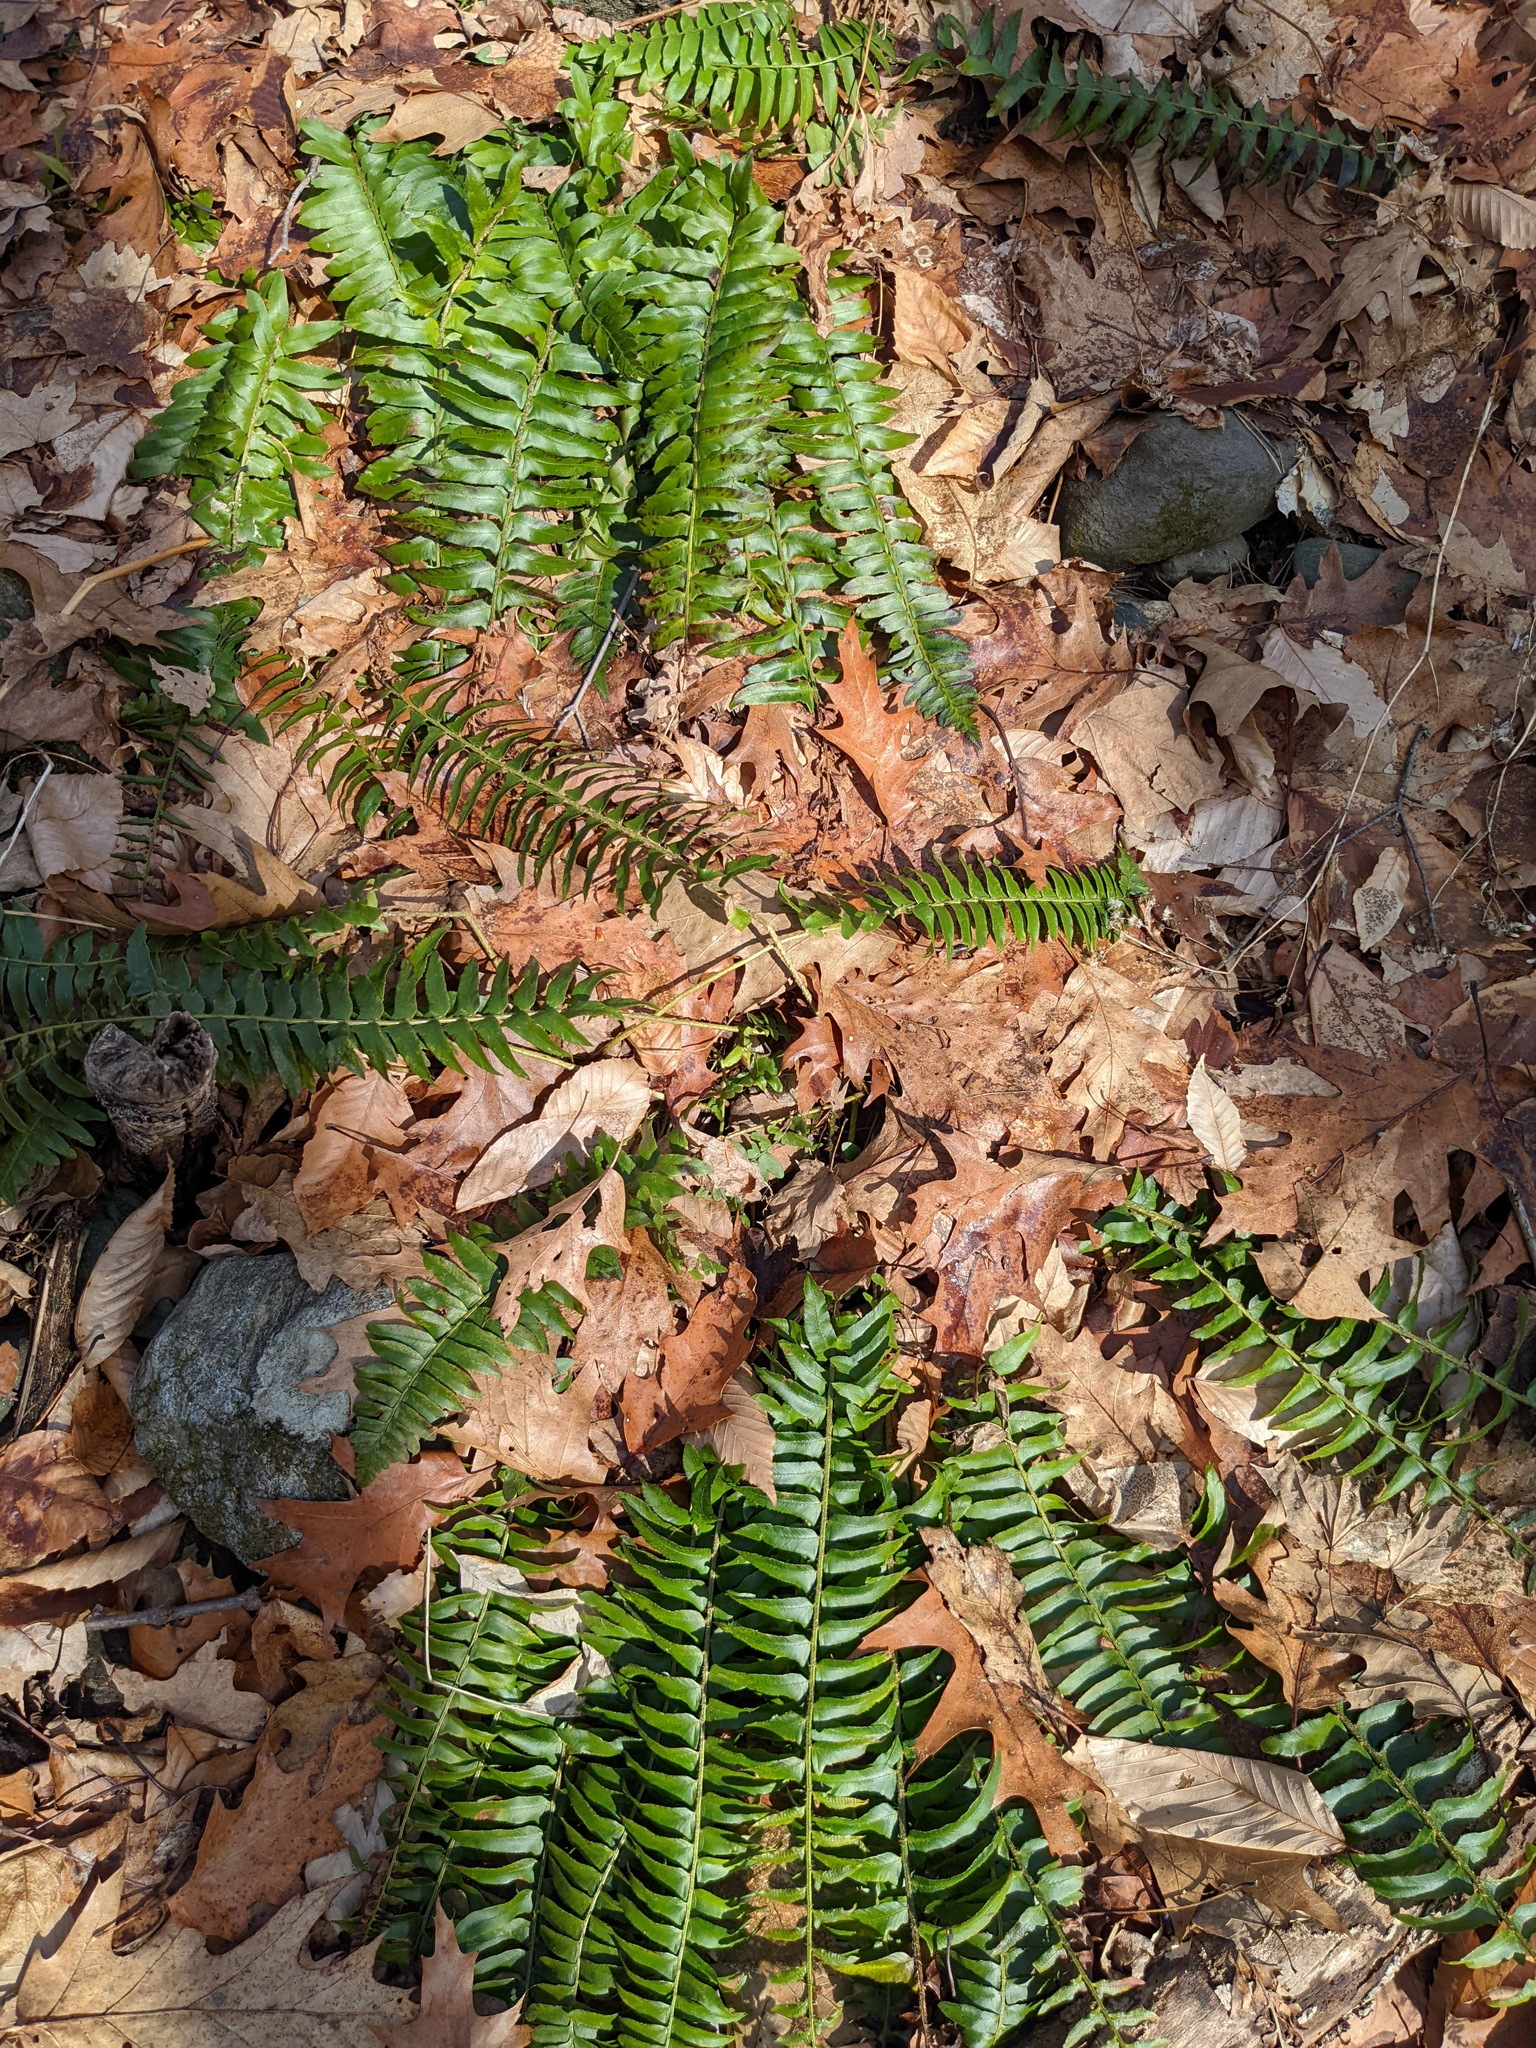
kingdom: Plantae
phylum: Tracheophyta
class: Polypodiopsida
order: Polypodiales
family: Dryopteridaceae
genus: Polystichum
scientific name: Polystichum acrostichoides
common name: Christmas fern
